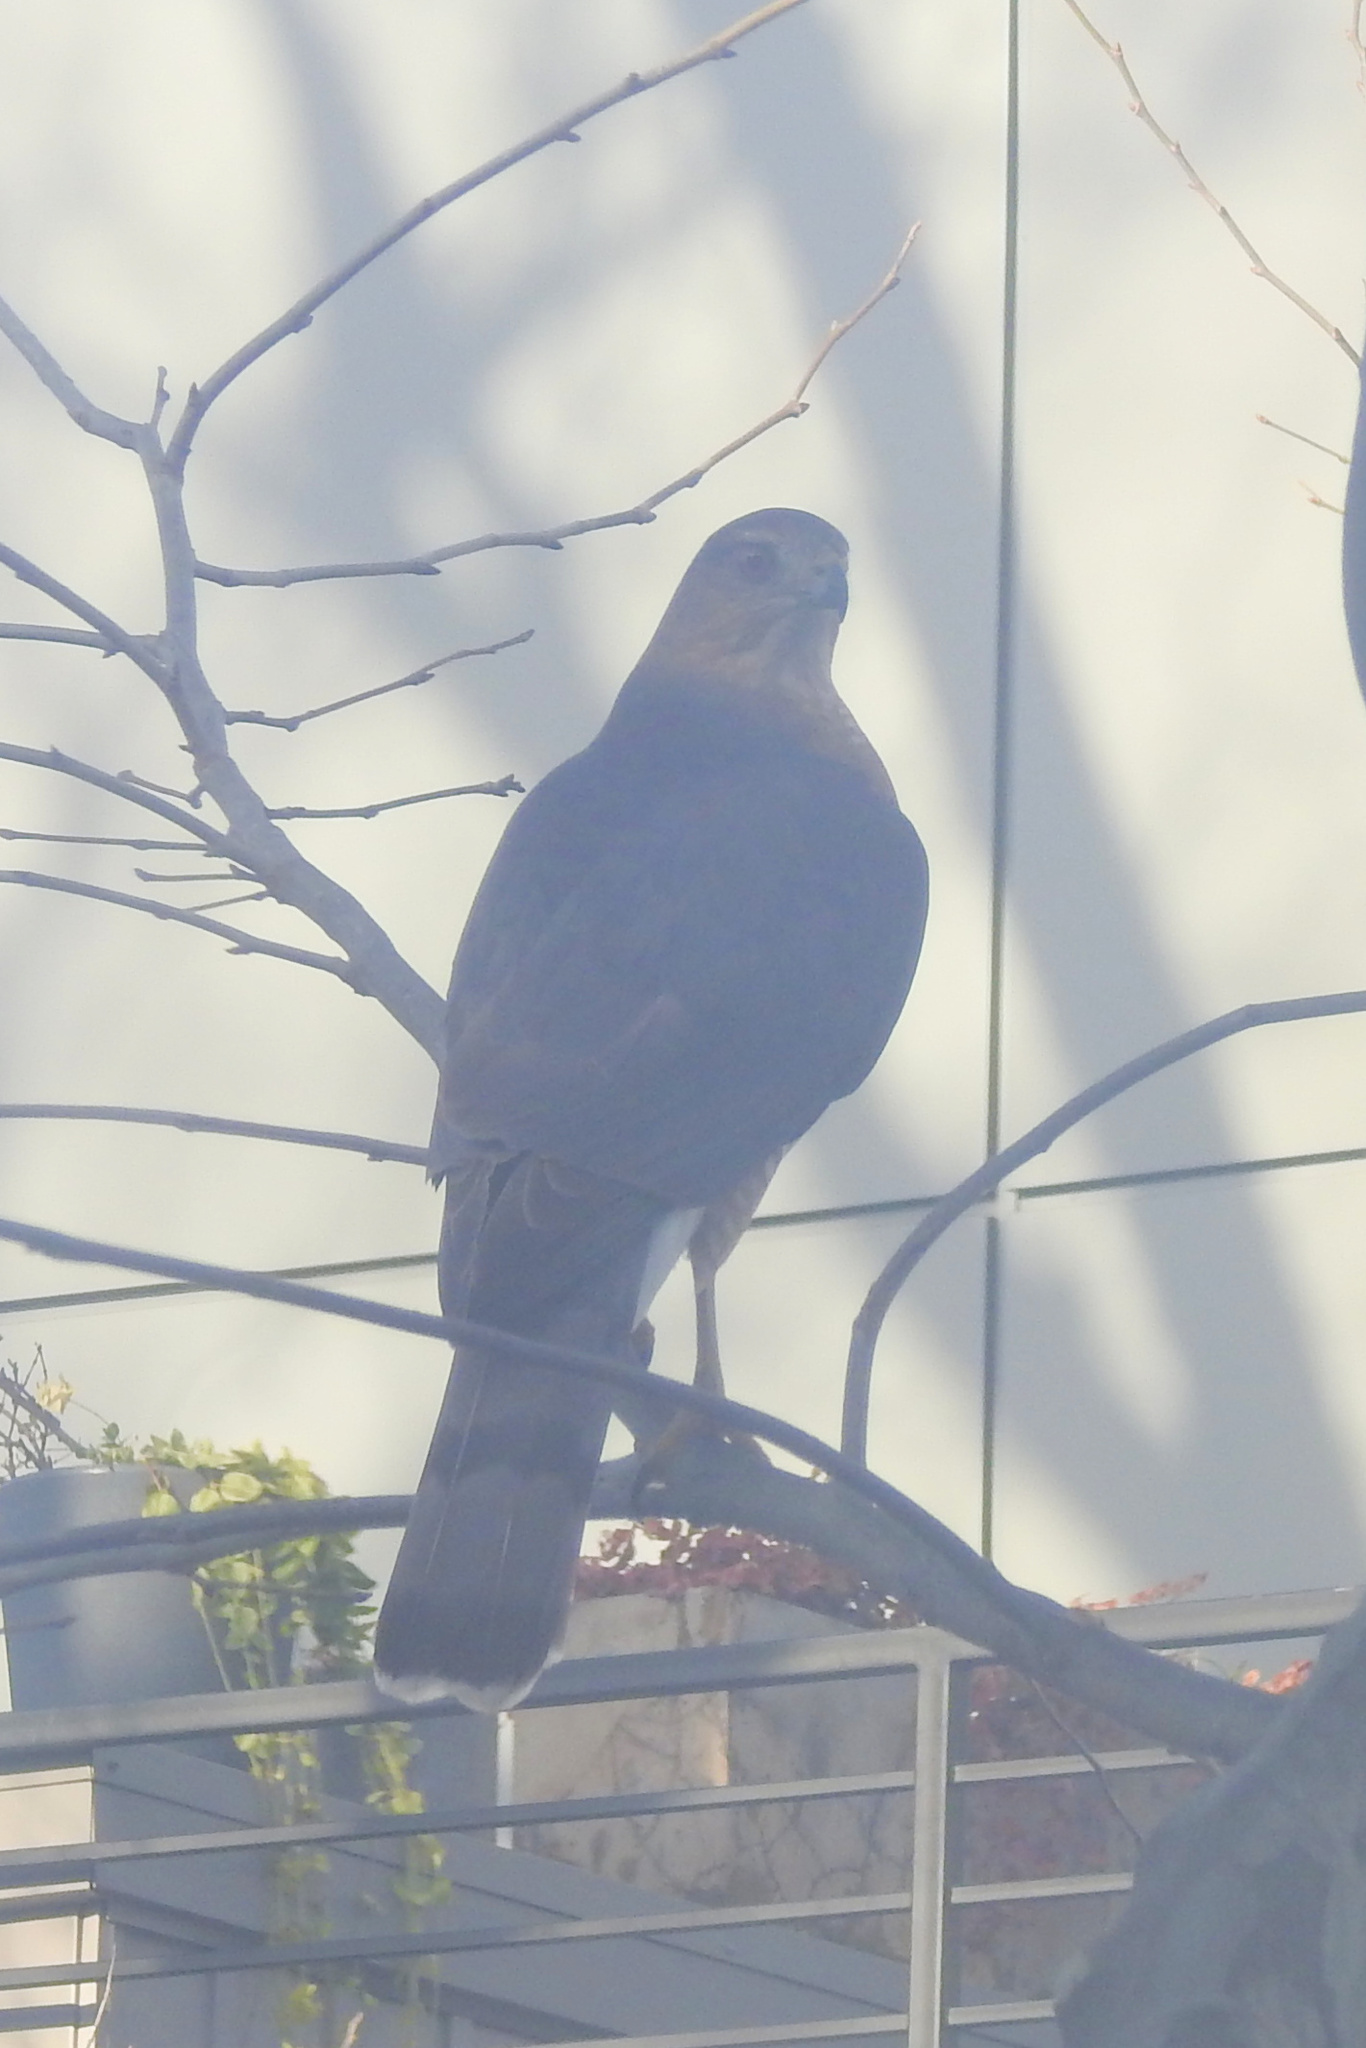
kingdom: Animalia
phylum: Chordata
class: Aves
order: Accipitriformes
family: Accipitridae
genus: Accipiter
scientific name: Accipiter cooperii
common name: Cooper's hawk
